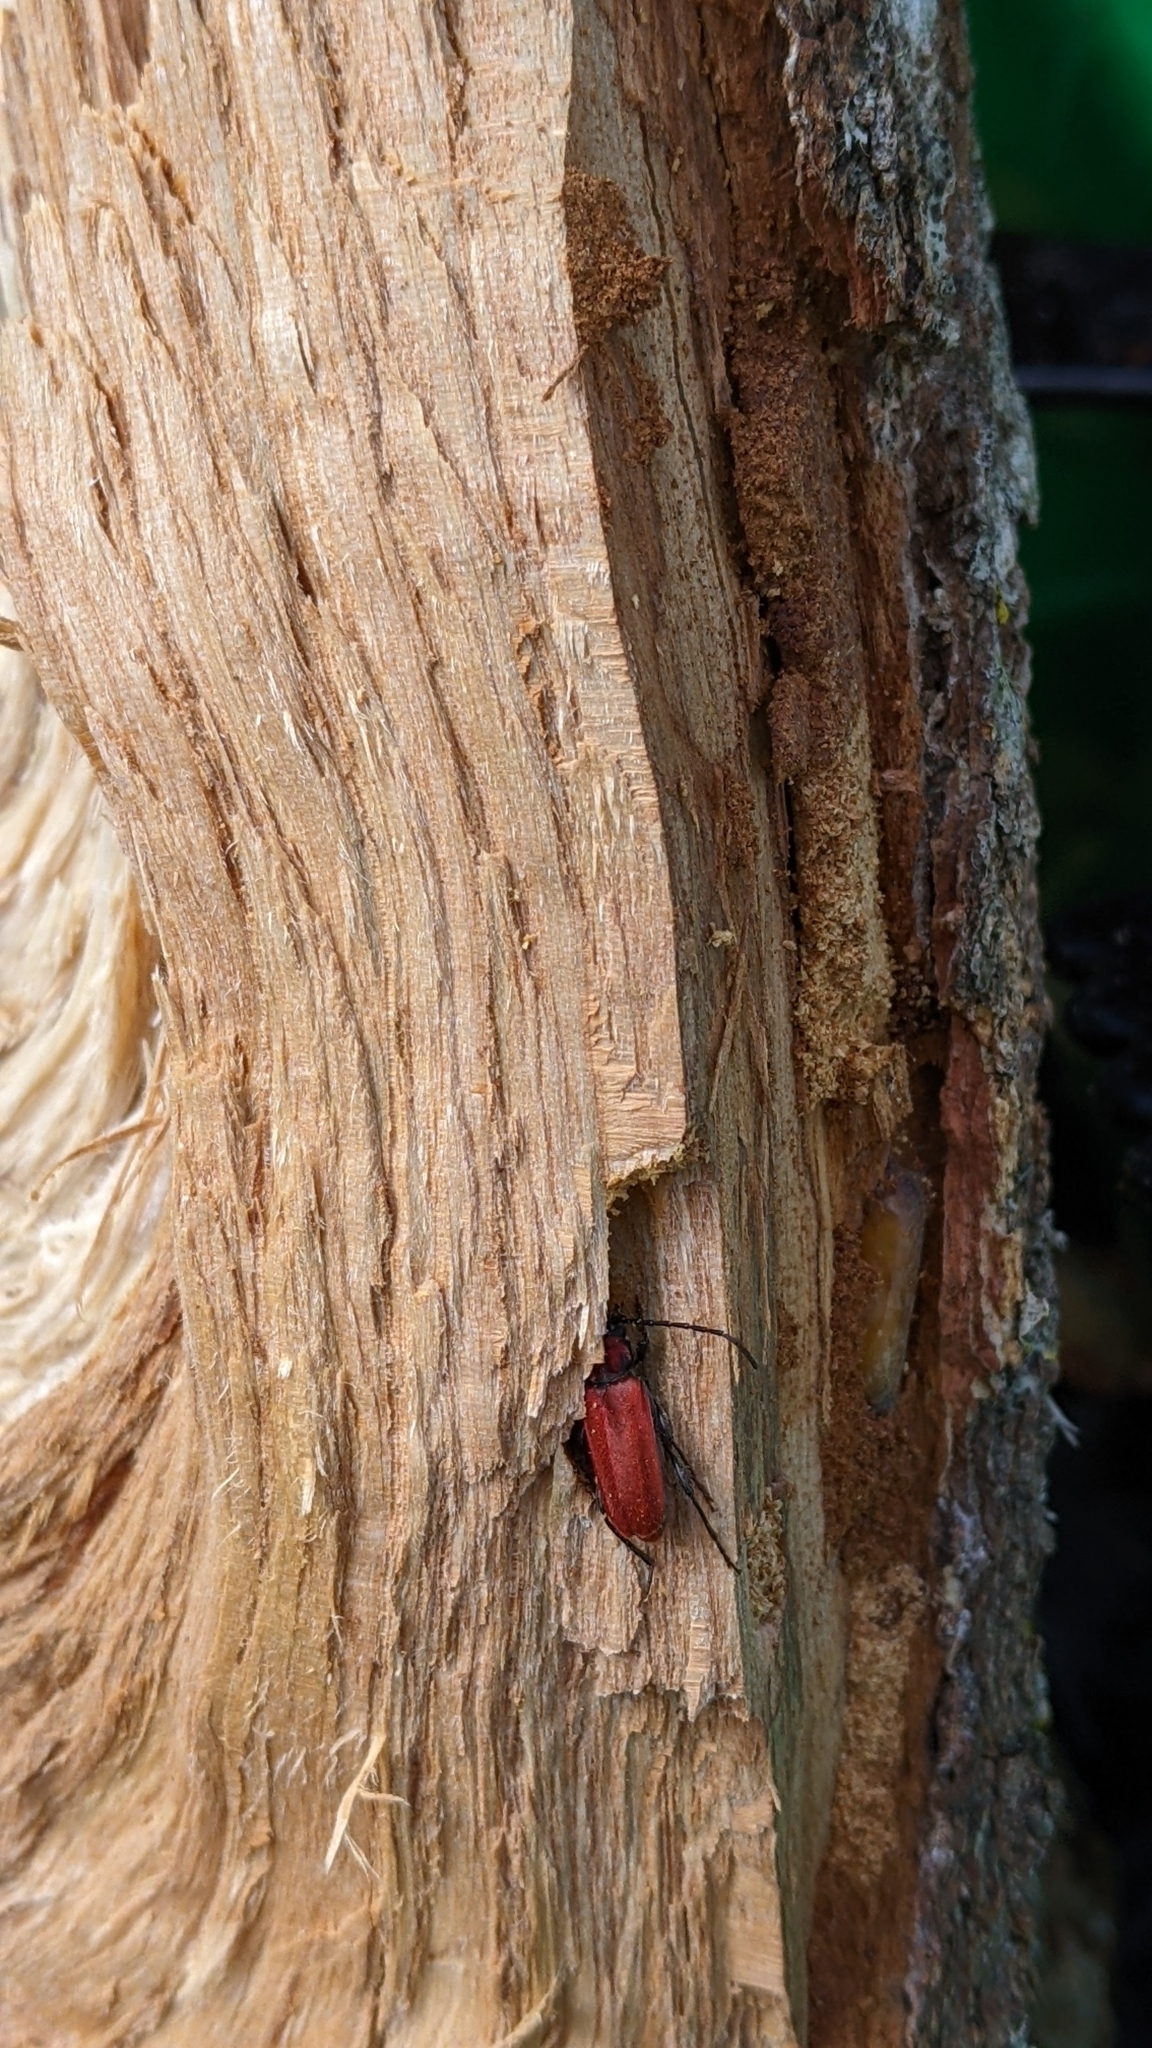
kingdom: Animalia
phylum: Arthropoda
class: Insecta
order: Coleoptera
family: Cerambycidae
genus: Pyrrhidium
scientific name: Pyrrhidium sanguineum
